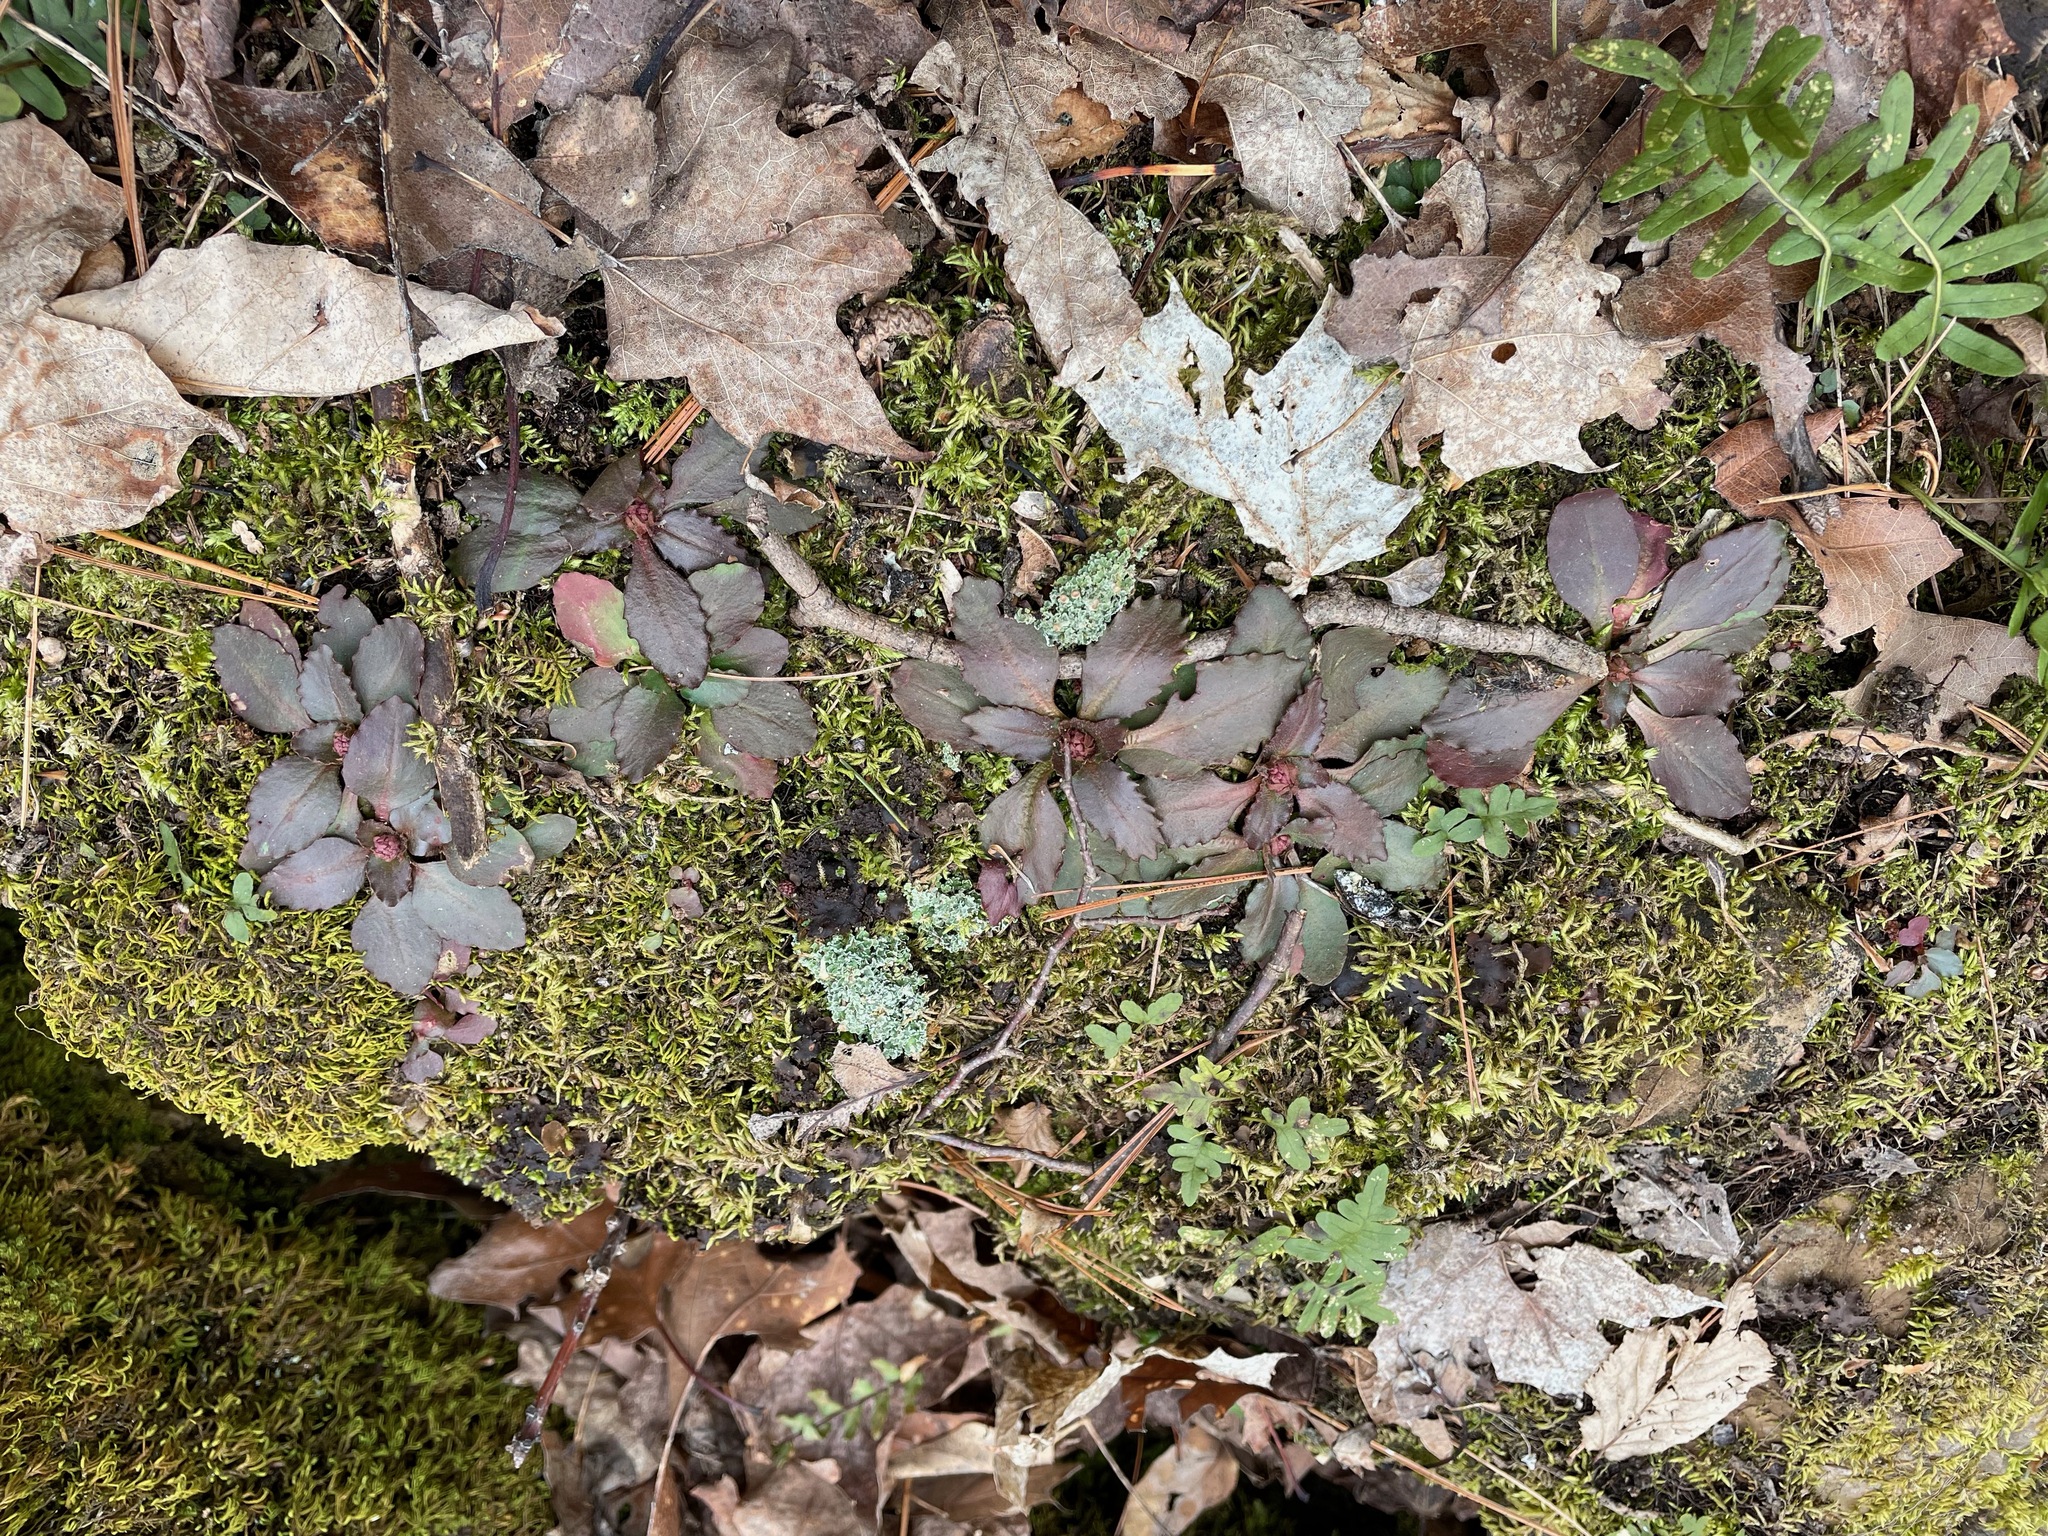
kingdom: Plantae
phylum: Tracheophyta
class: Magnoliopsida
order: Saxifragales
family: Saxifragaceae
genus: Micranthes
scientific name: Micranthes virginiensis
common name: Early saxifrage
